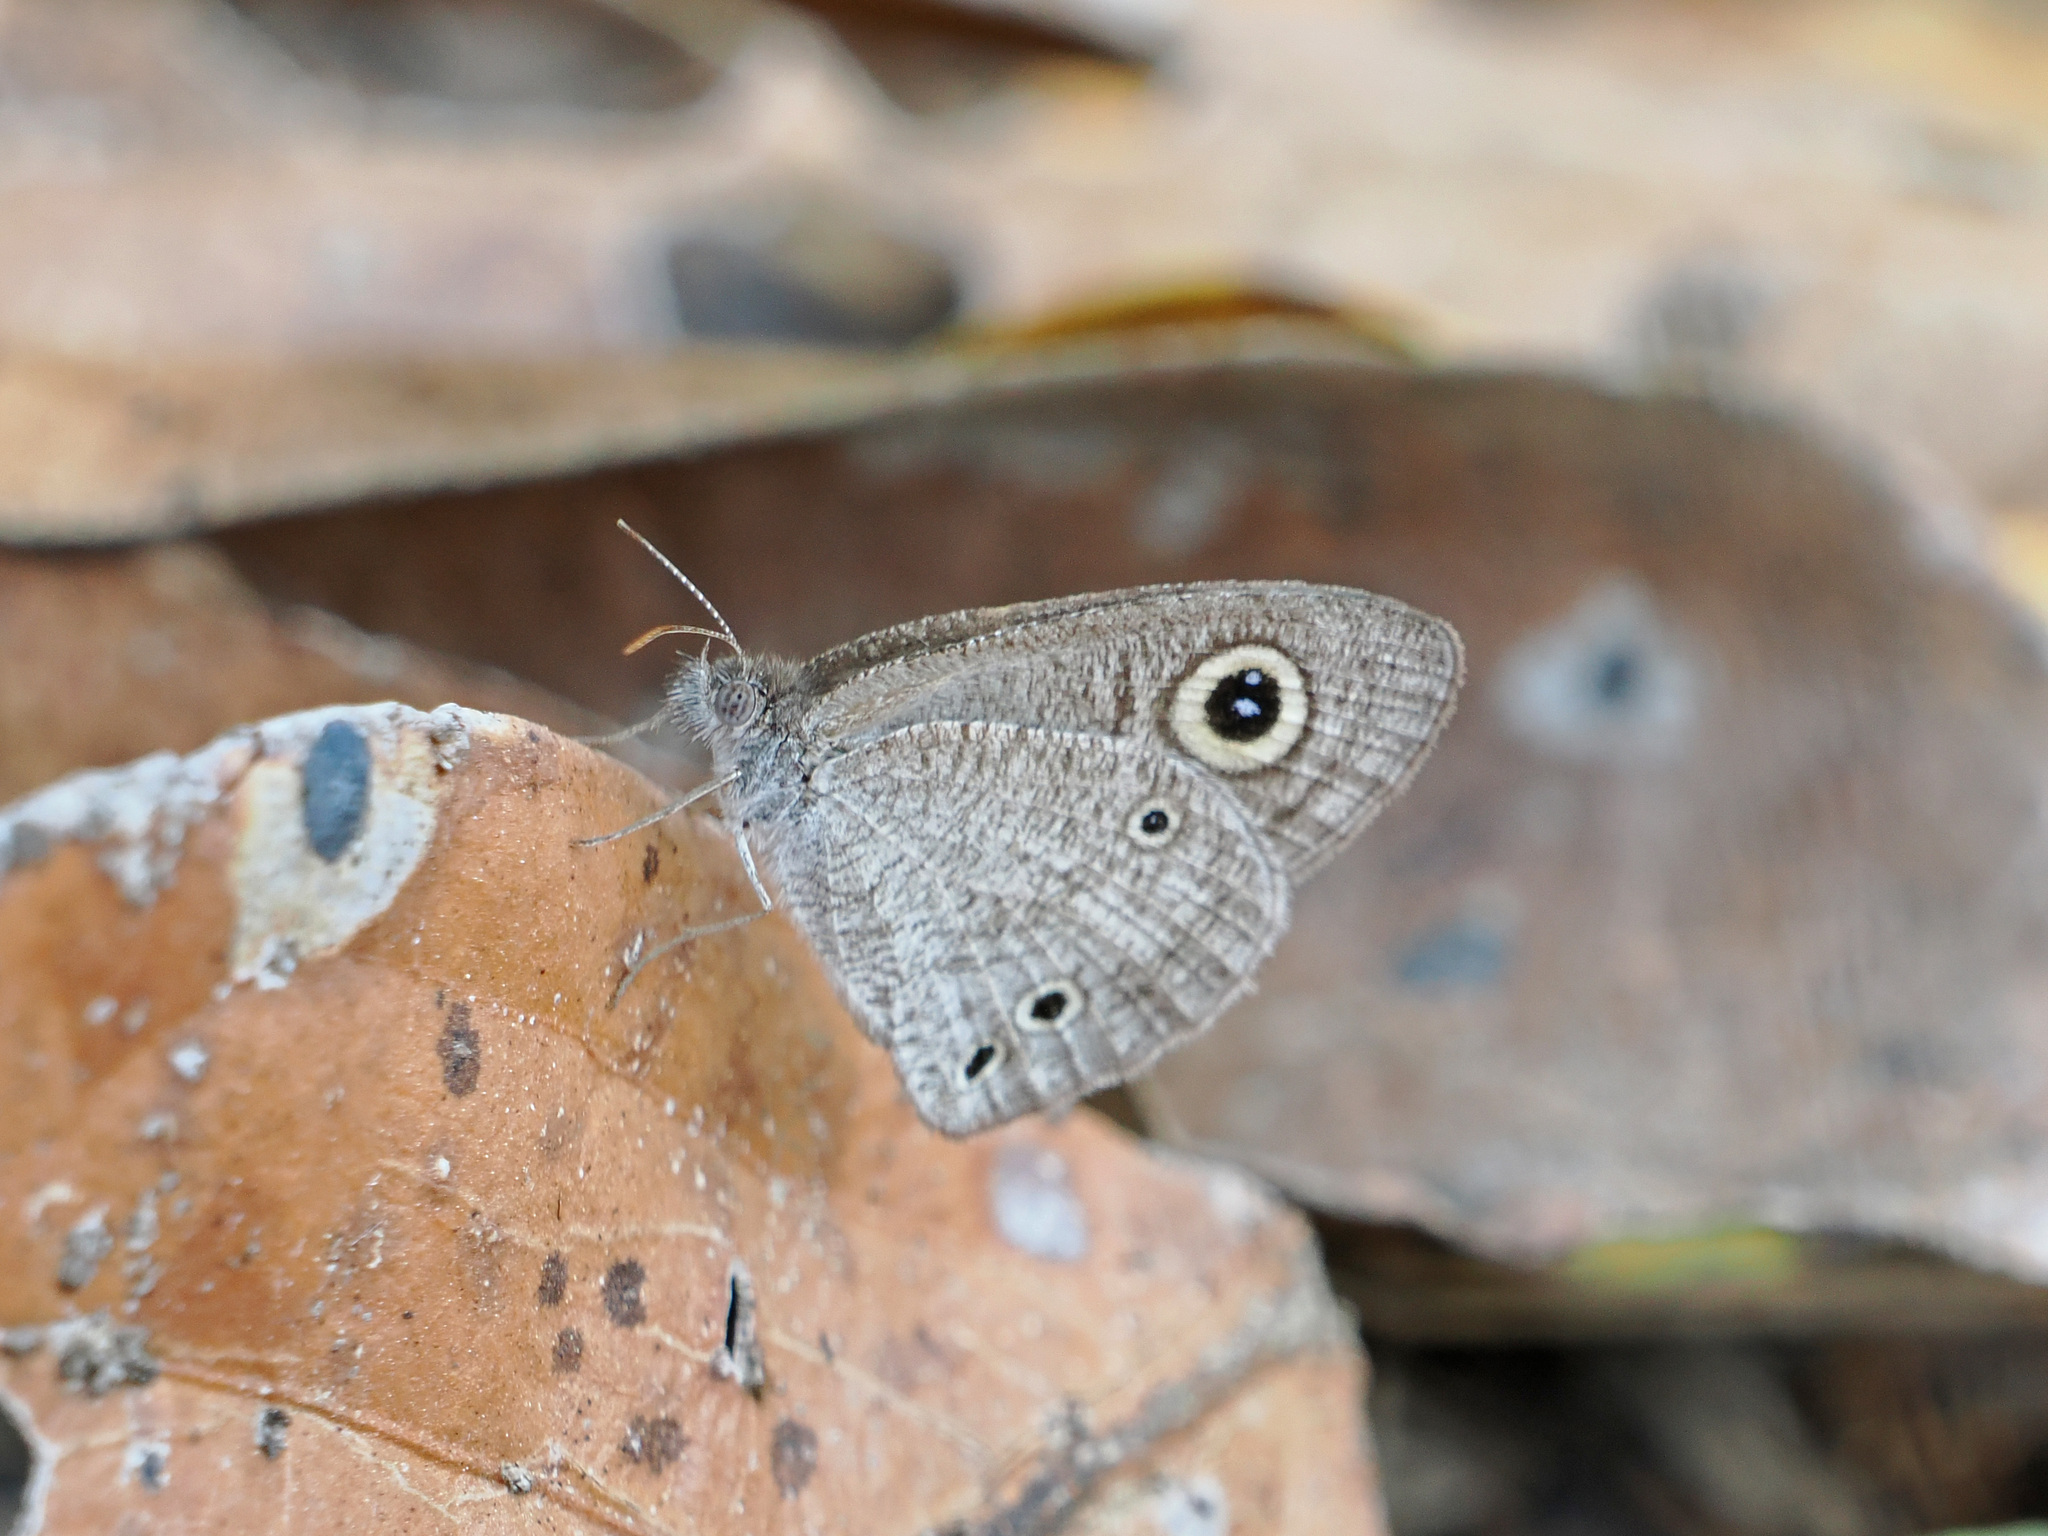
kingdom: Animalia
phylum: Arthropoda
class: Insecta
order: Lepidoptera
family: Nymphalidae
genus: Ypthima
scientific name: Ypthima asterope
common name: African ringlet
